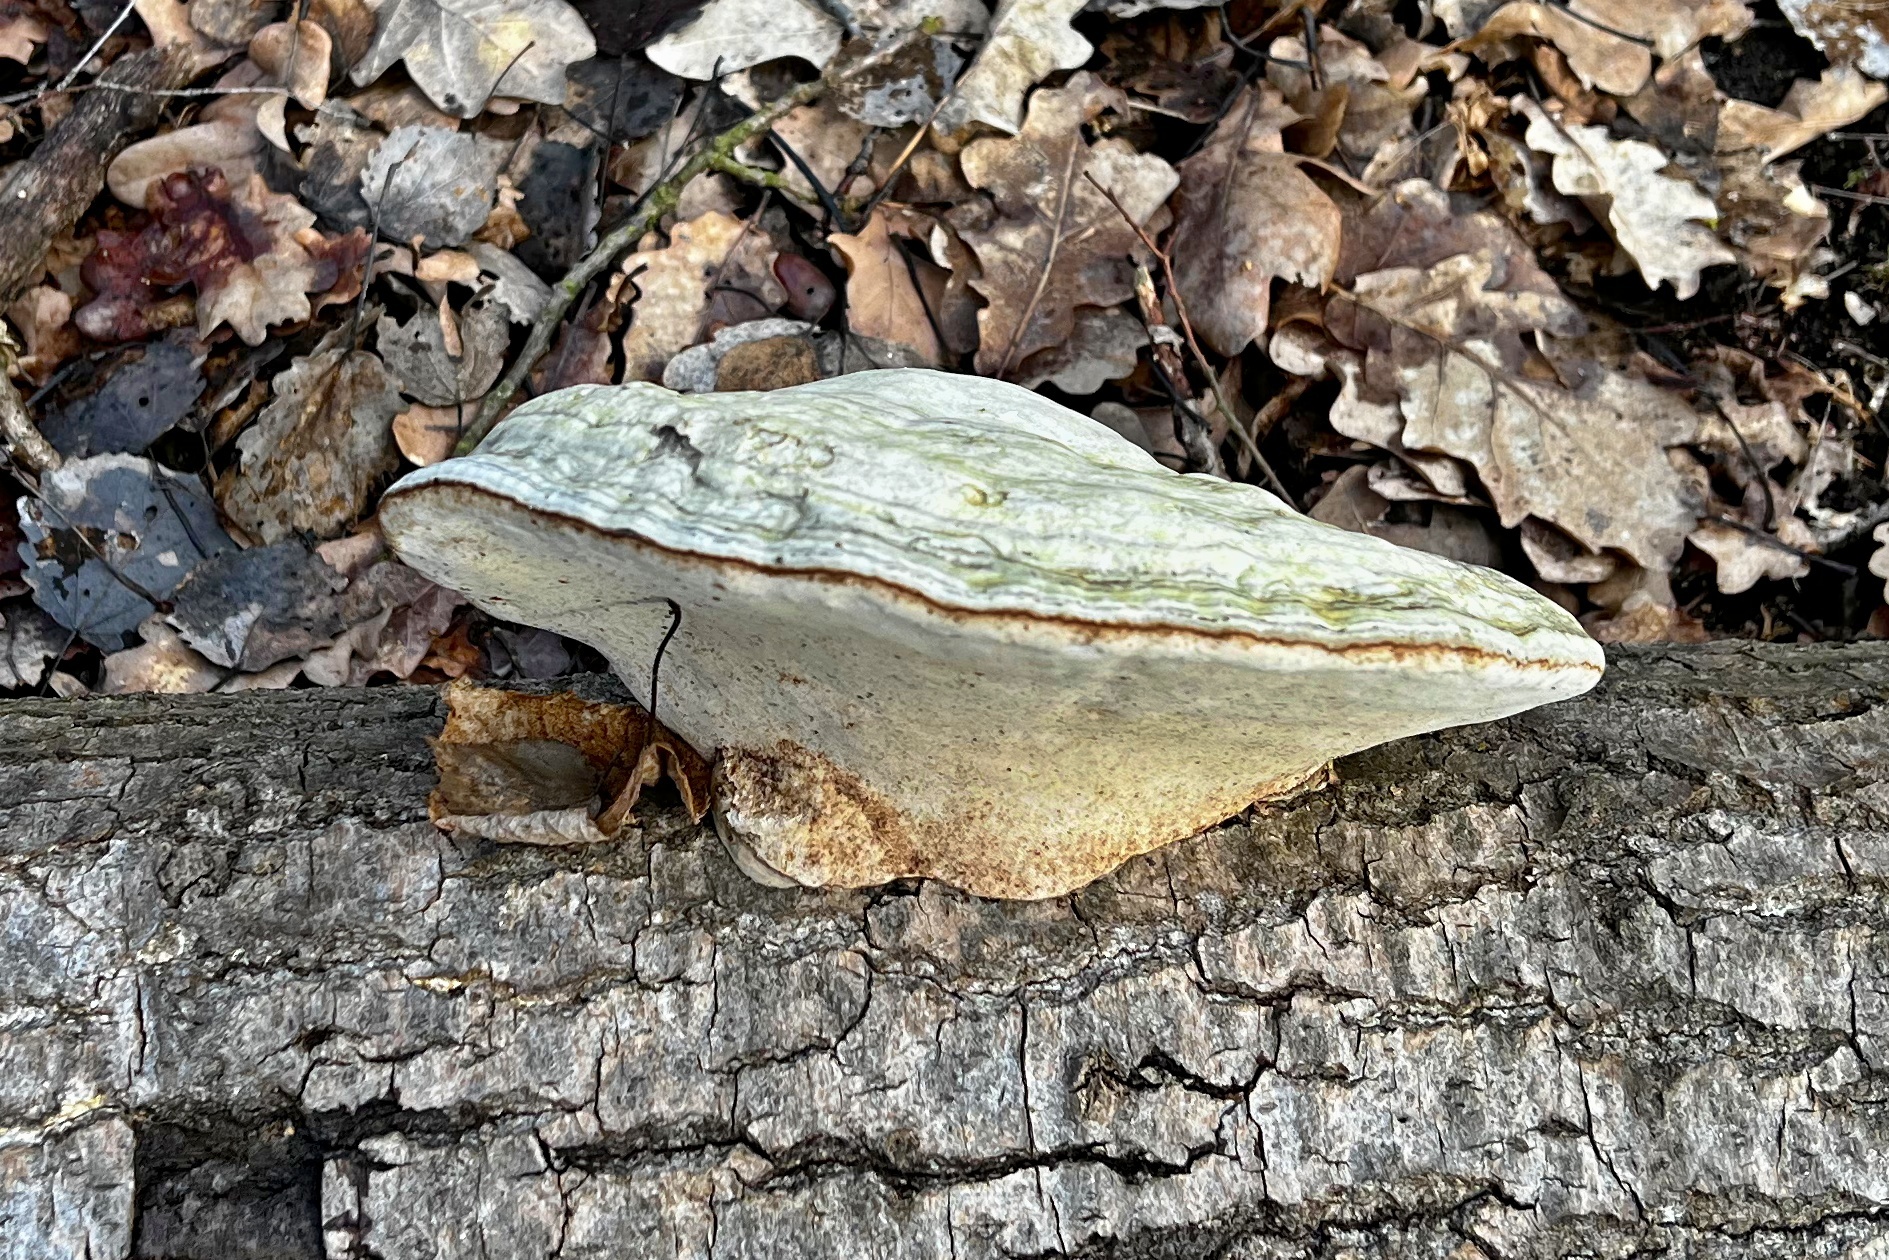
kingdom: Fungi
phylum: Basidiomycota
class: Agaricomycetes
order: Polyporales
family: Polyporaceae
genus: Fomes
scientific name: Fomes fomentarius
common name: Hoof fungus
